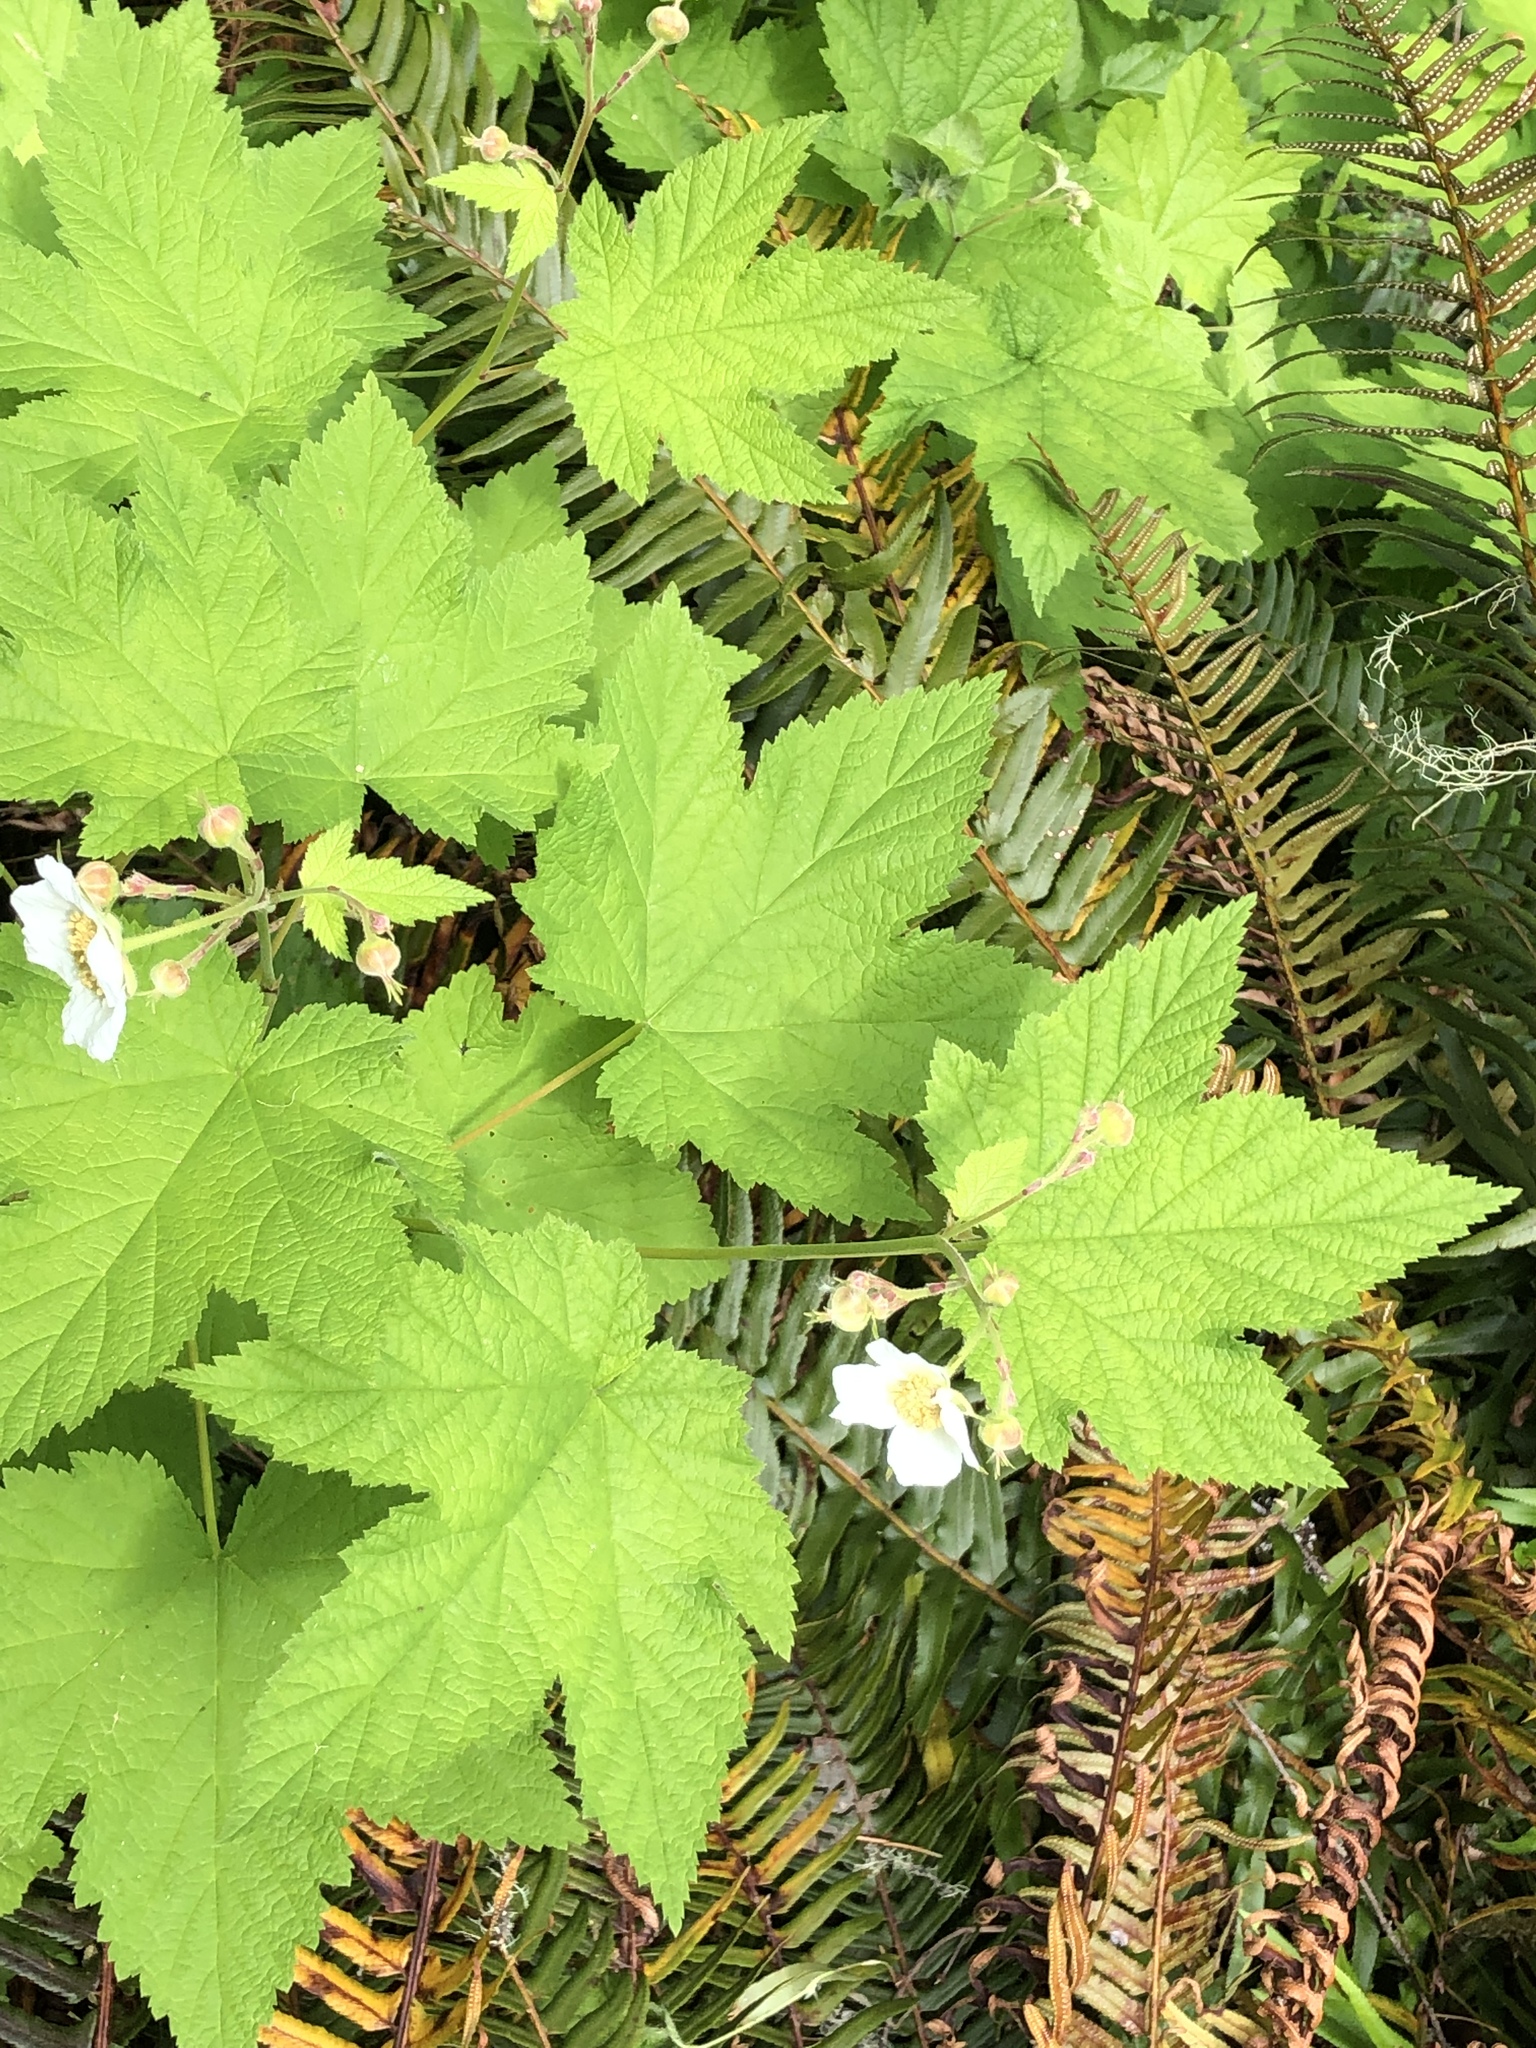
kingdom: Plantae
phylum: Tracheophyta
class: Magnoliopsida
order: Rosales
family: Rosaceae
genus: Rubus
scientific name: Rubus parviflorus
